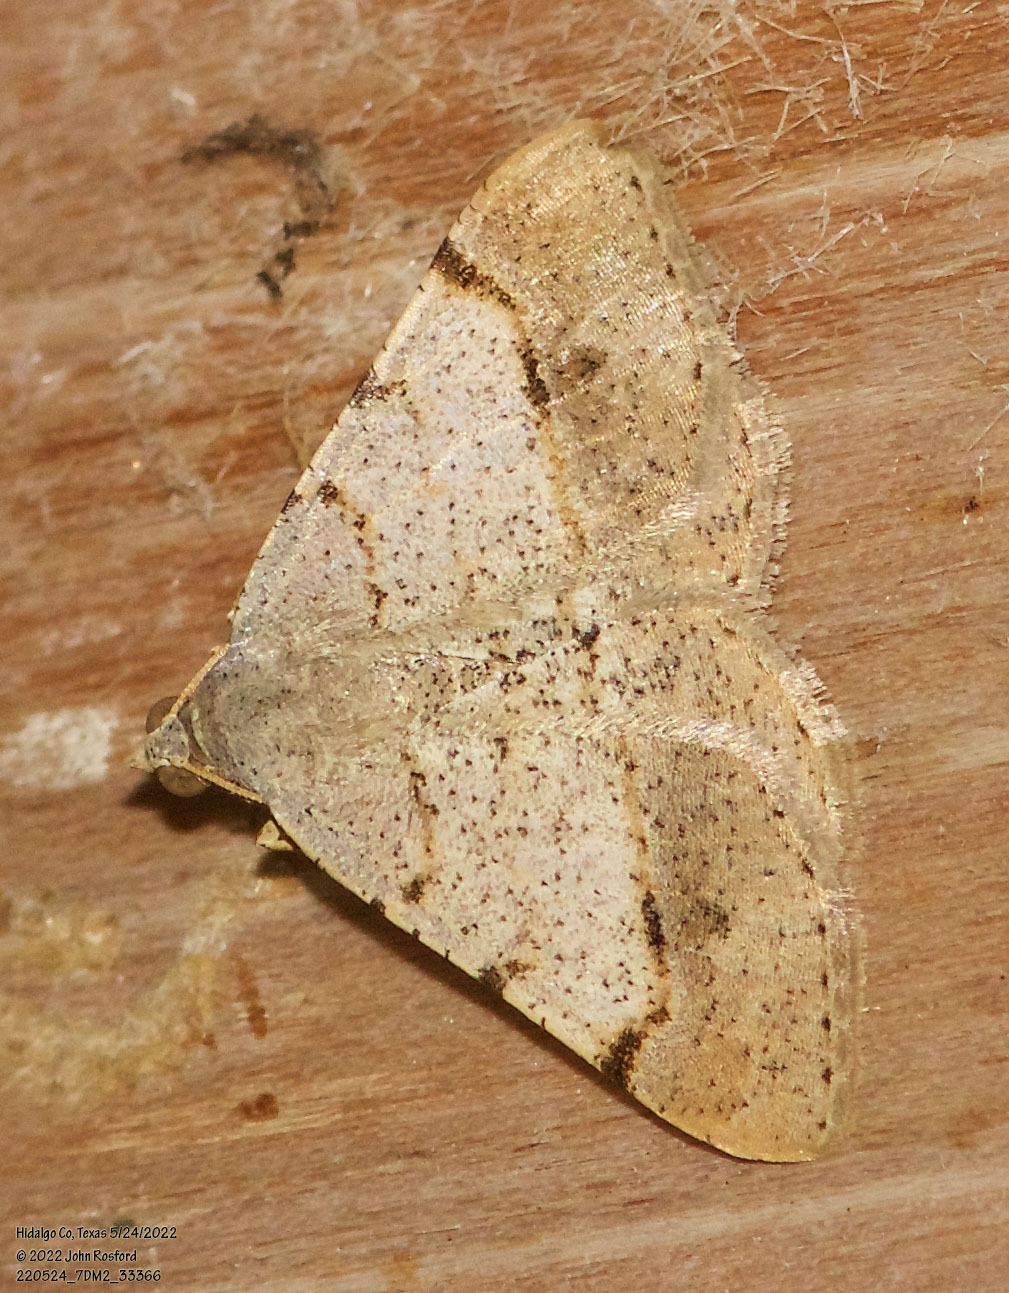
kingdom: Animalia
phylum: Arthropoda
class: Insecta
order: Lepidoptera
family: Geometridae
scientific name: Geometridae
